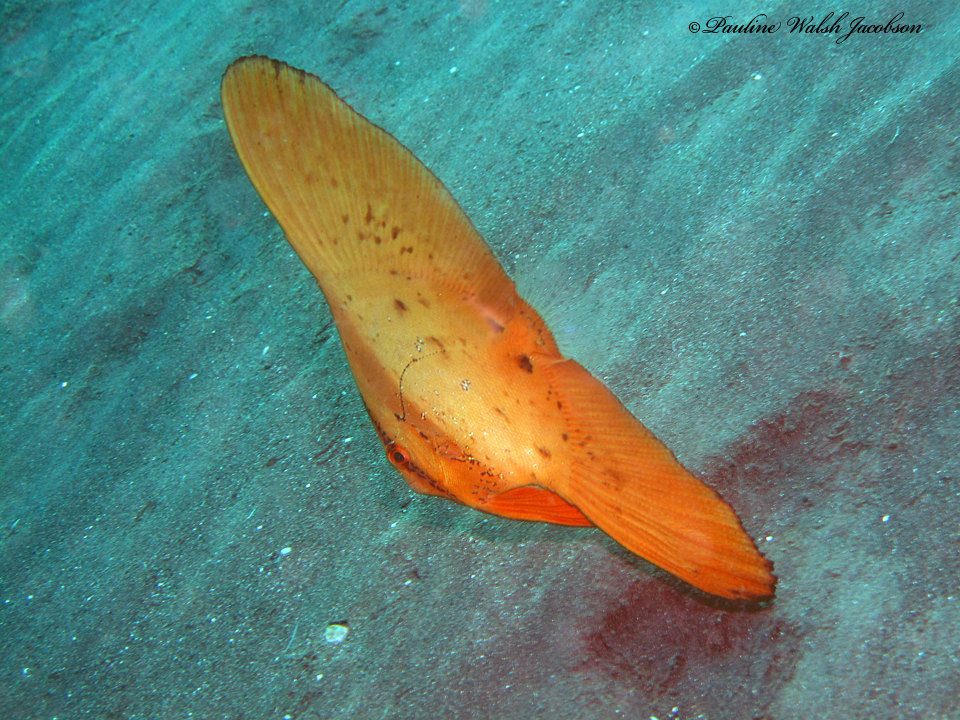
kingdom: Animalia
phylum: Chordata
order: Perciformes
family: Ephippidae
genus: Platax
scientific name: Platax orbicularis
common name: Batfish
